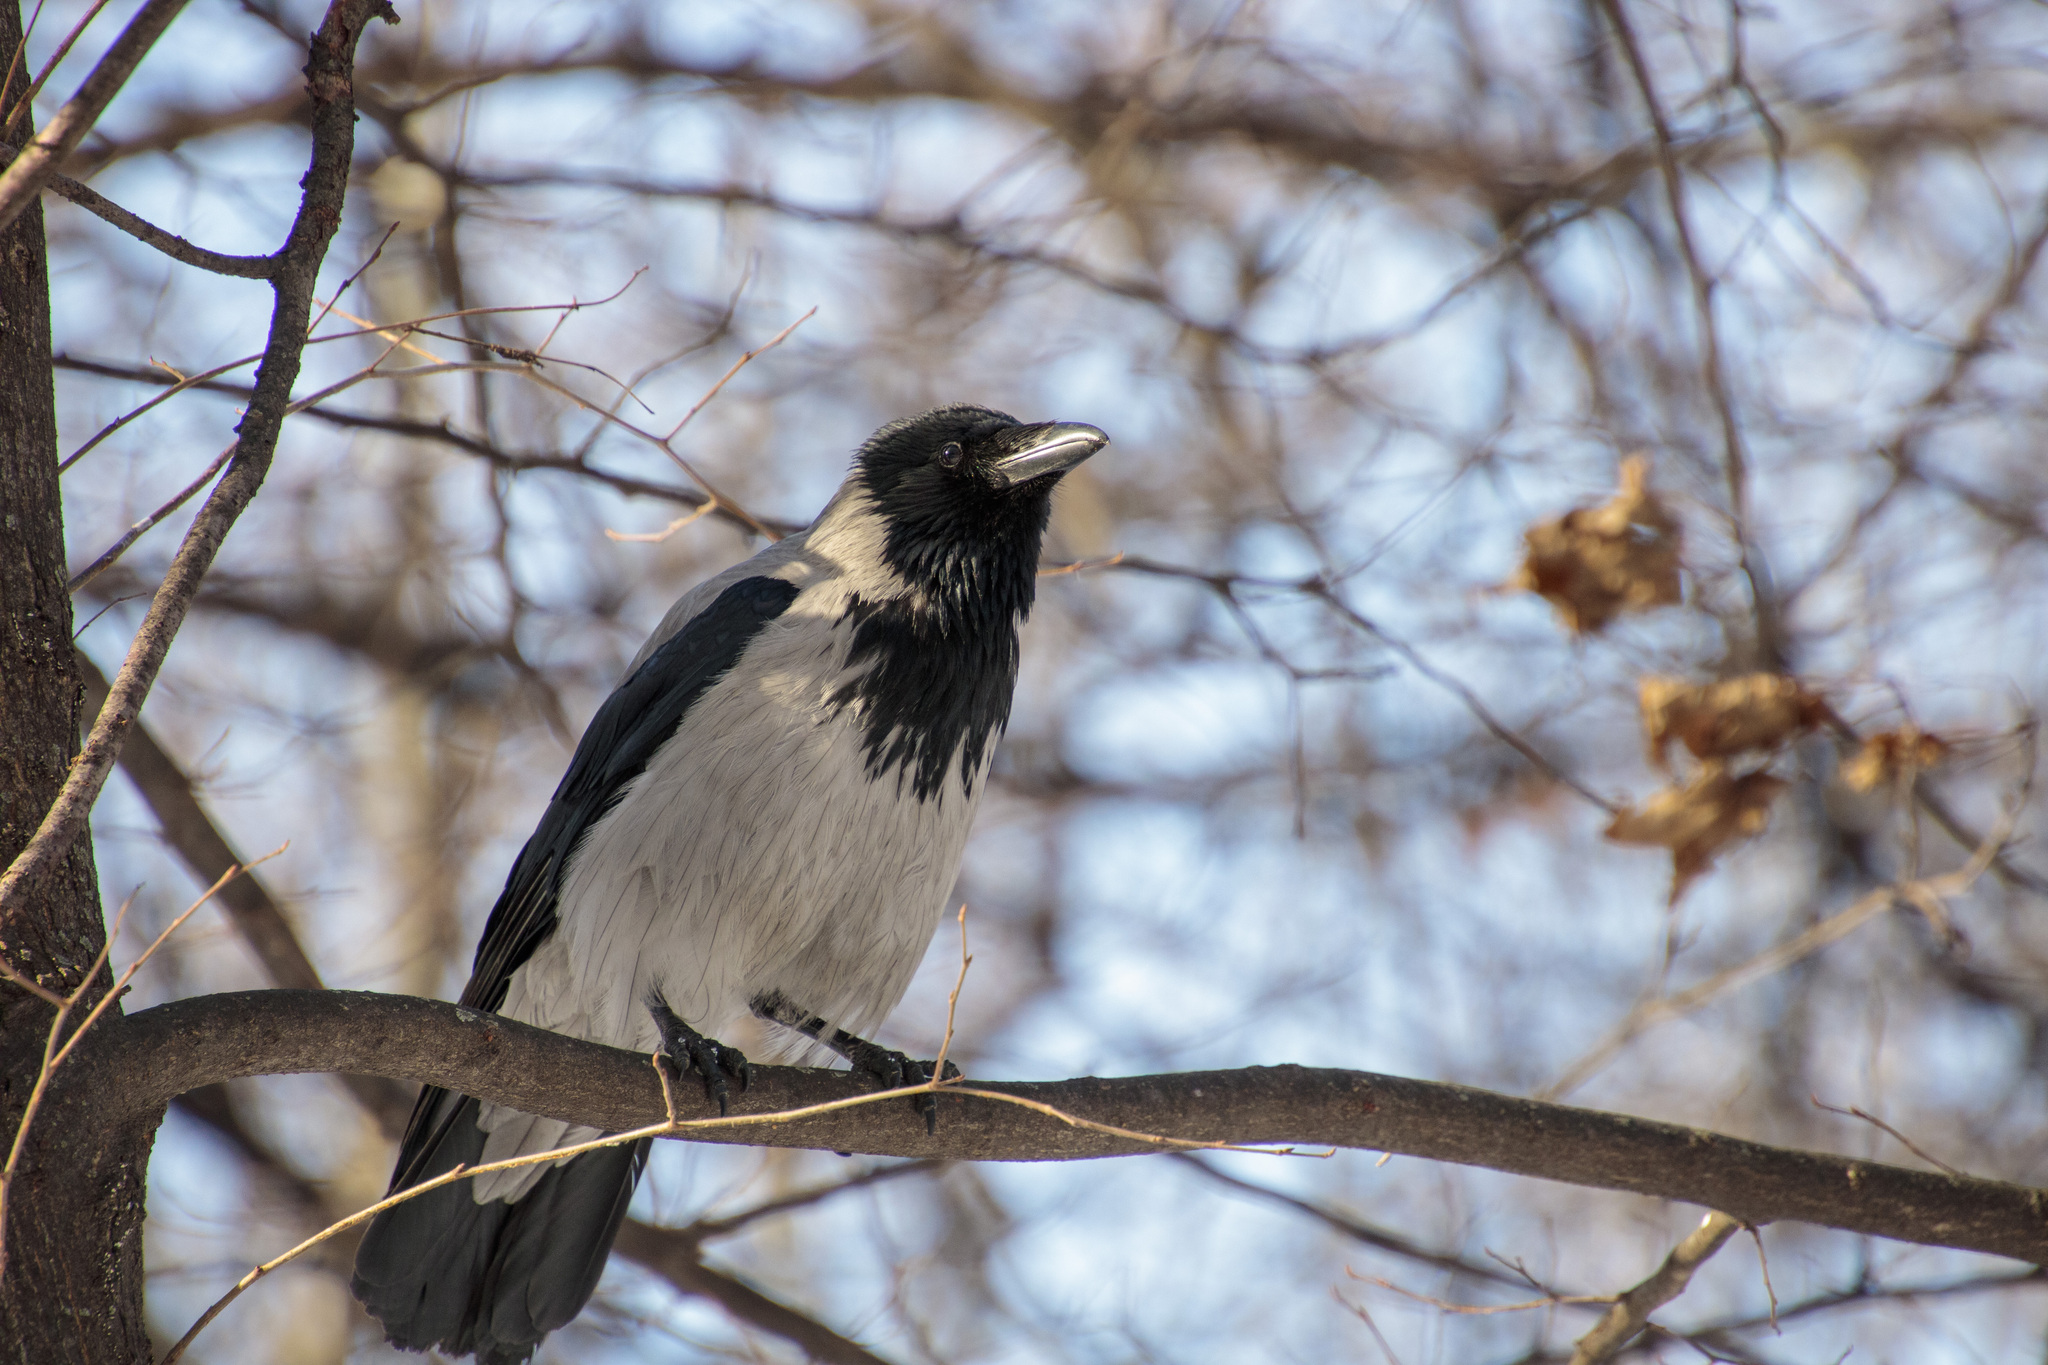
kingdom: Animalia
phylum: Chordata
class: Aves
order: Passeriformes
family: Corvidae
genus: Corvus
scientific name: Corvus cornix
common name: Hooded crow
